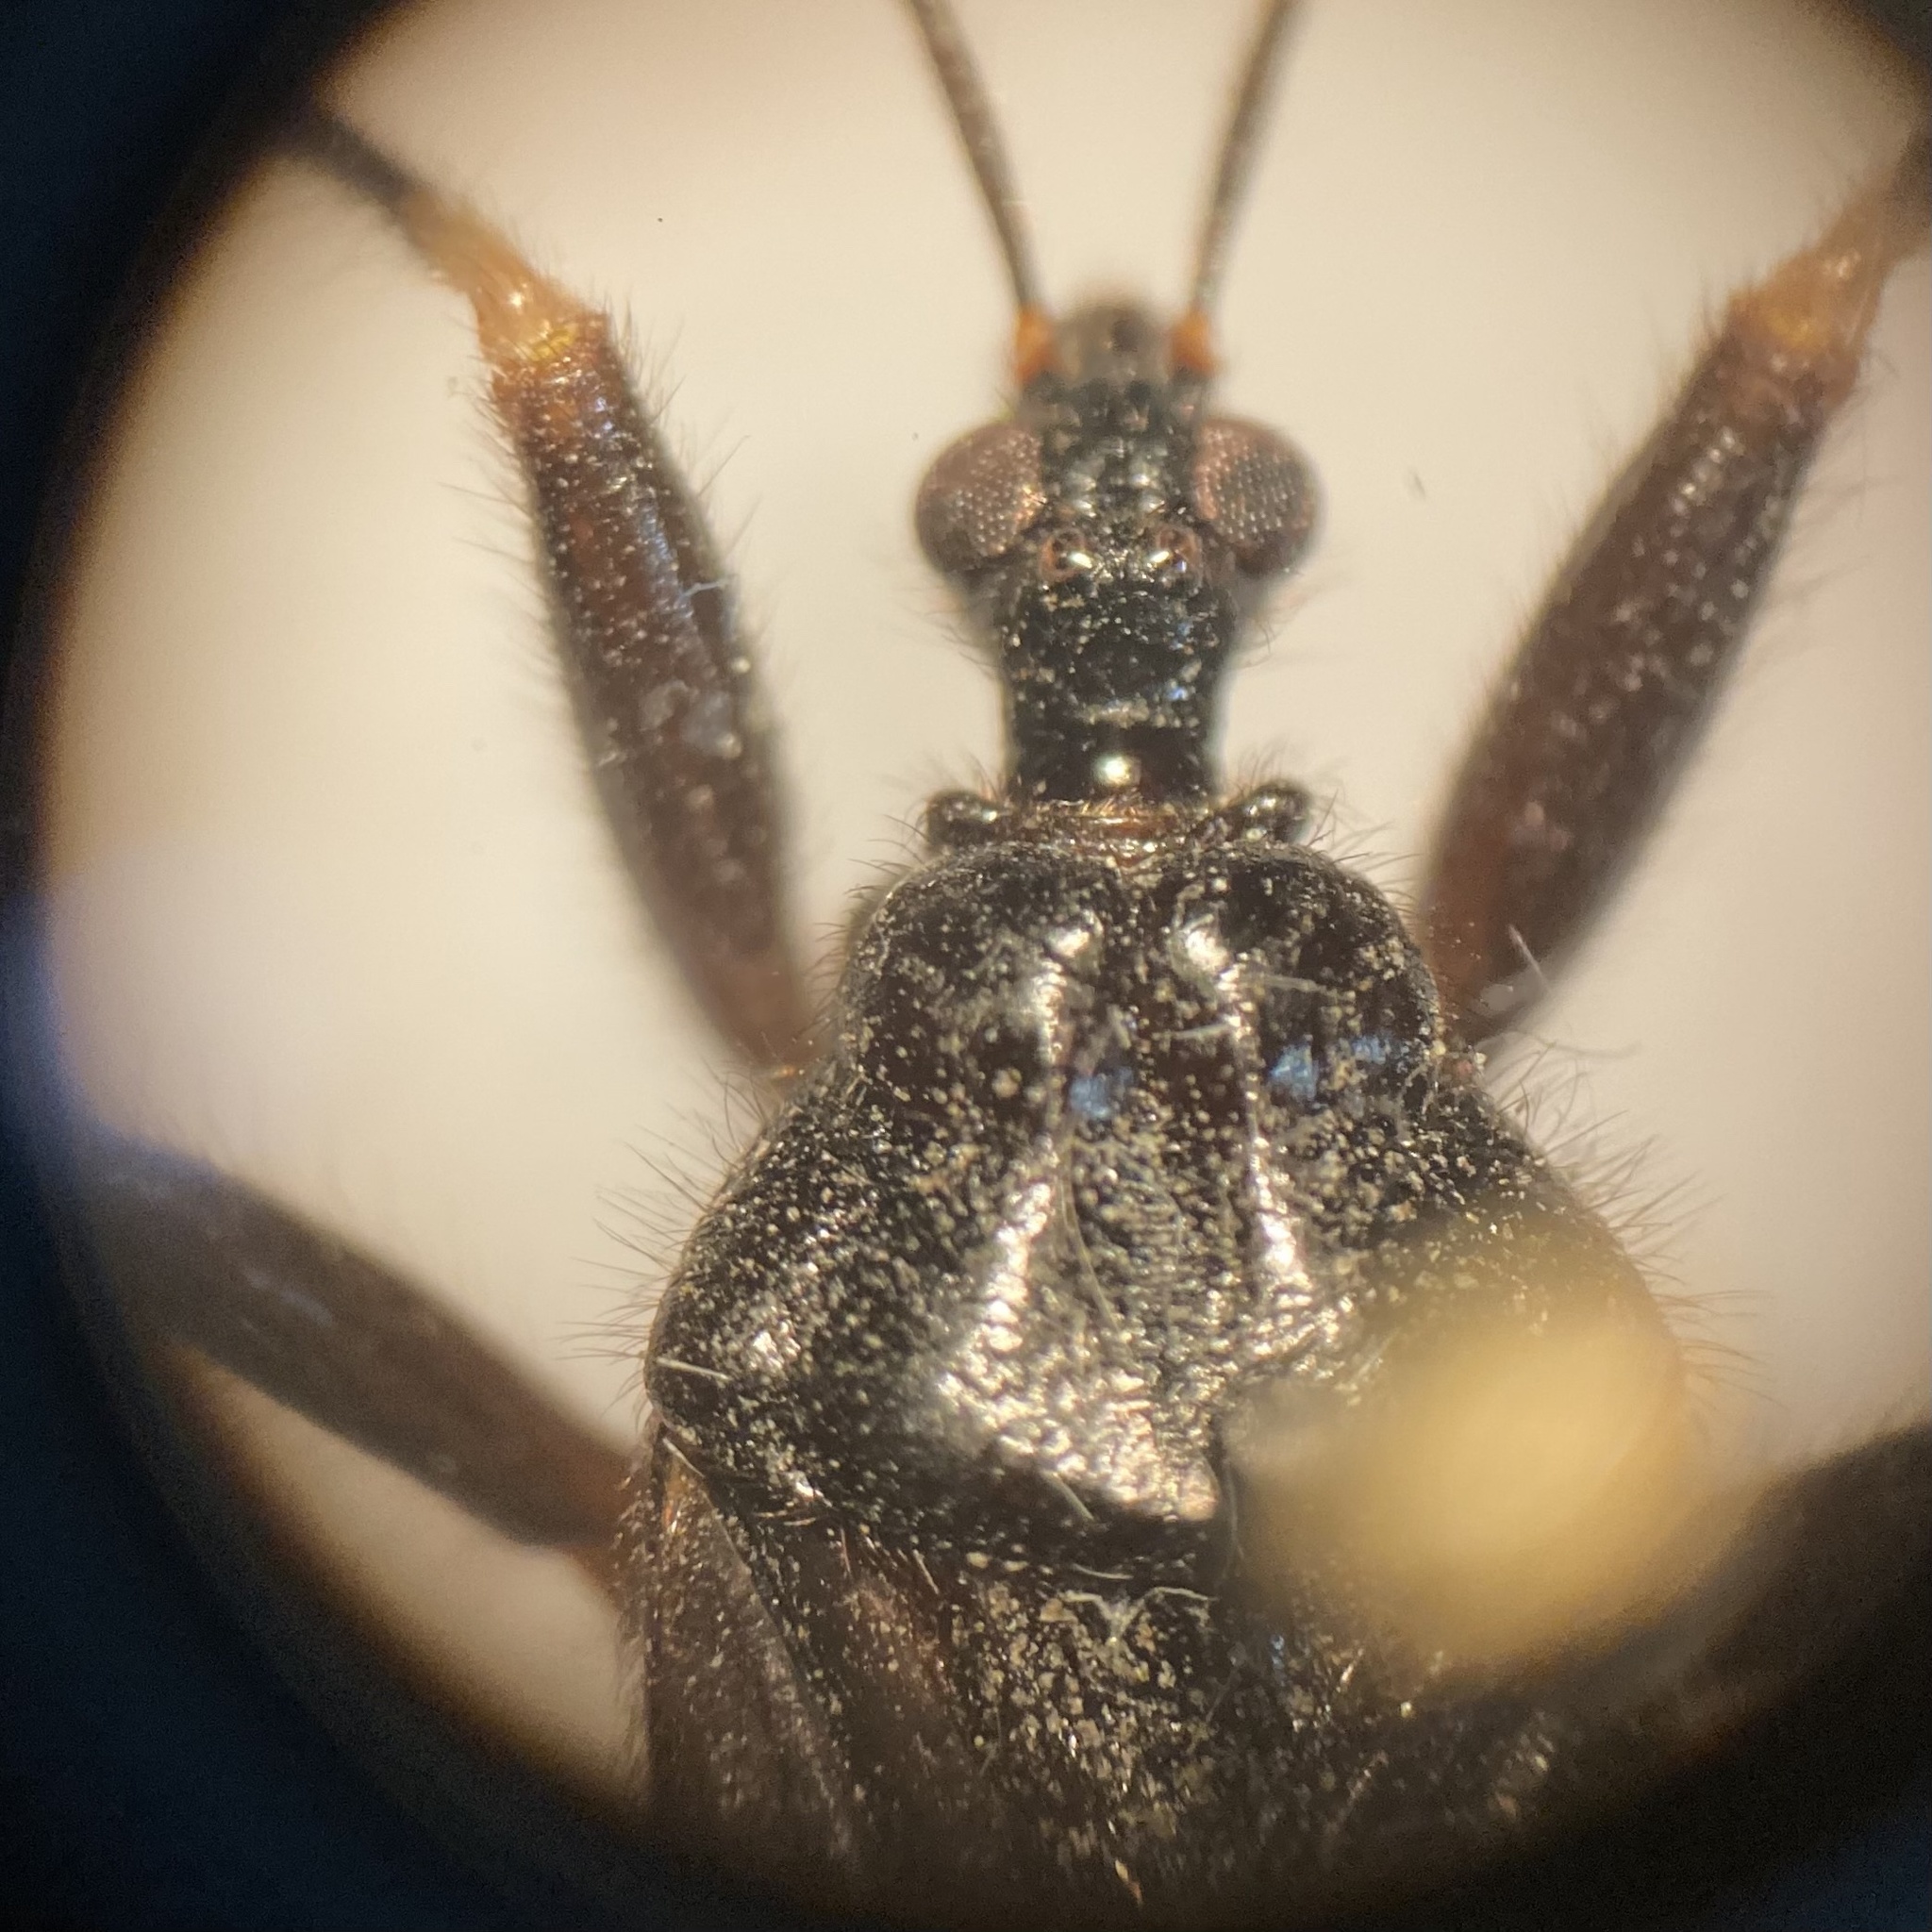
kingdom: Animalia
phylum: Arthropoda
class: Insecta
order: Hemiptera
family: Reduviidae
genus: Reduvius
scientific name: Reduvius personatus
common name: Masked hunter
